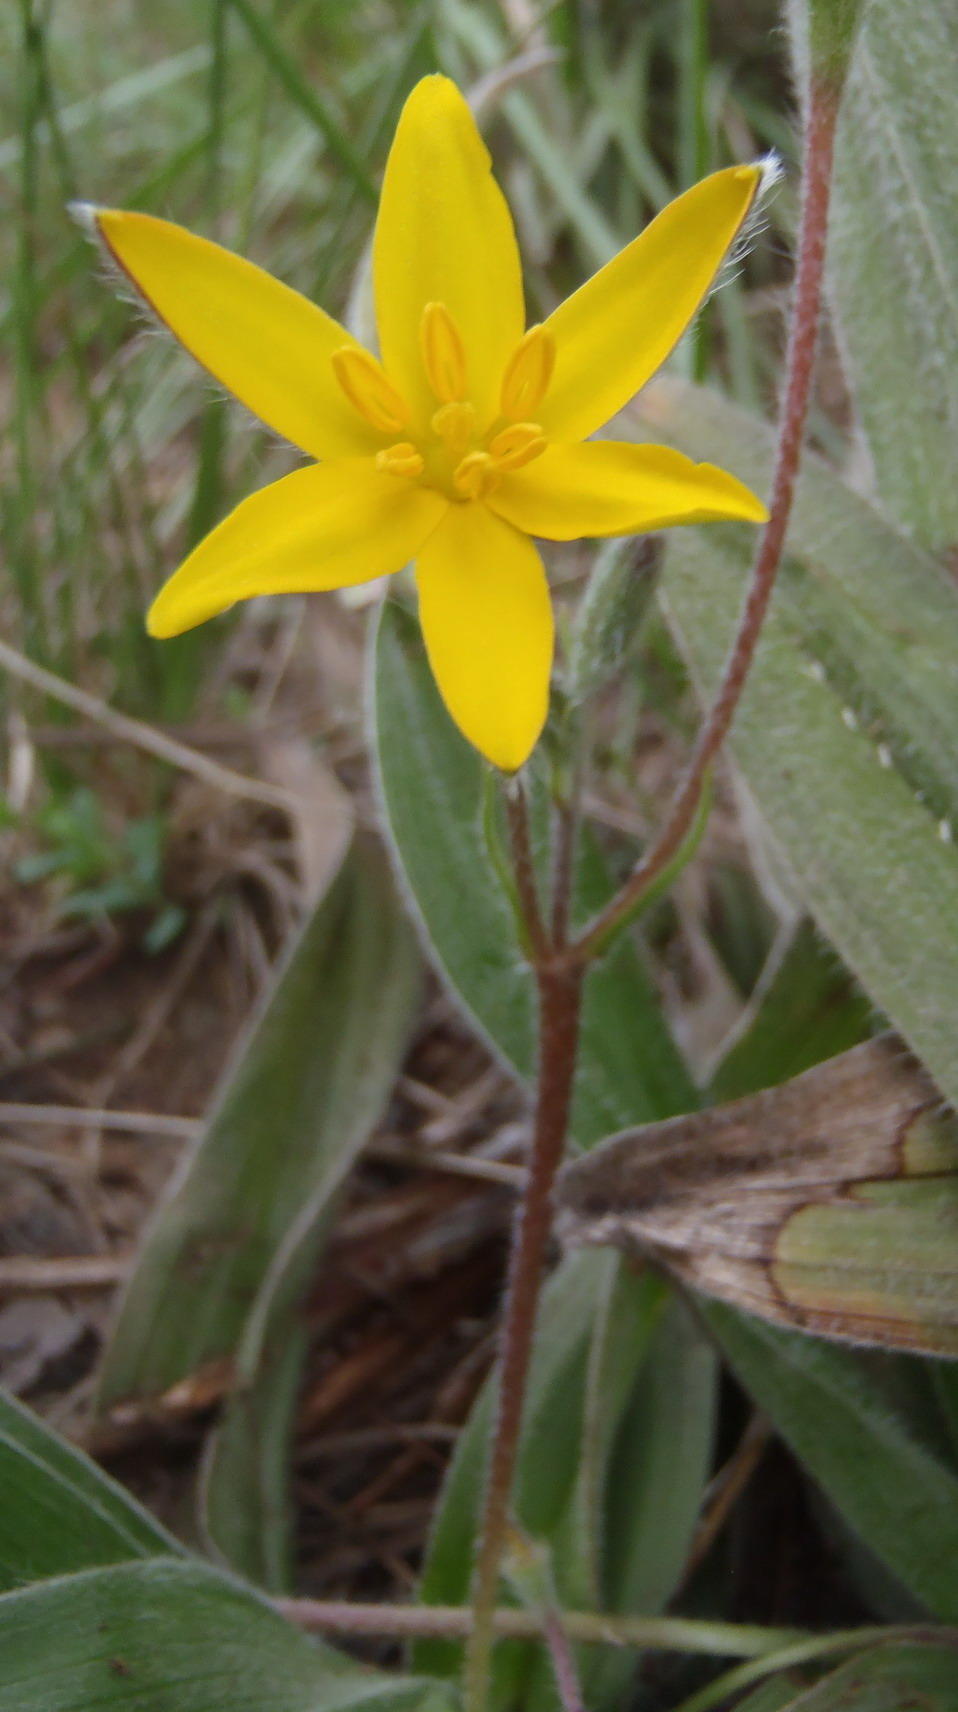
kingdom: Plantae
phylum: Tracheophyta
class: Liliopsida
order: Asparagales
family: Hypoxidaceae
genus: Hypoxis
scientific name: Hypoxis villosa
